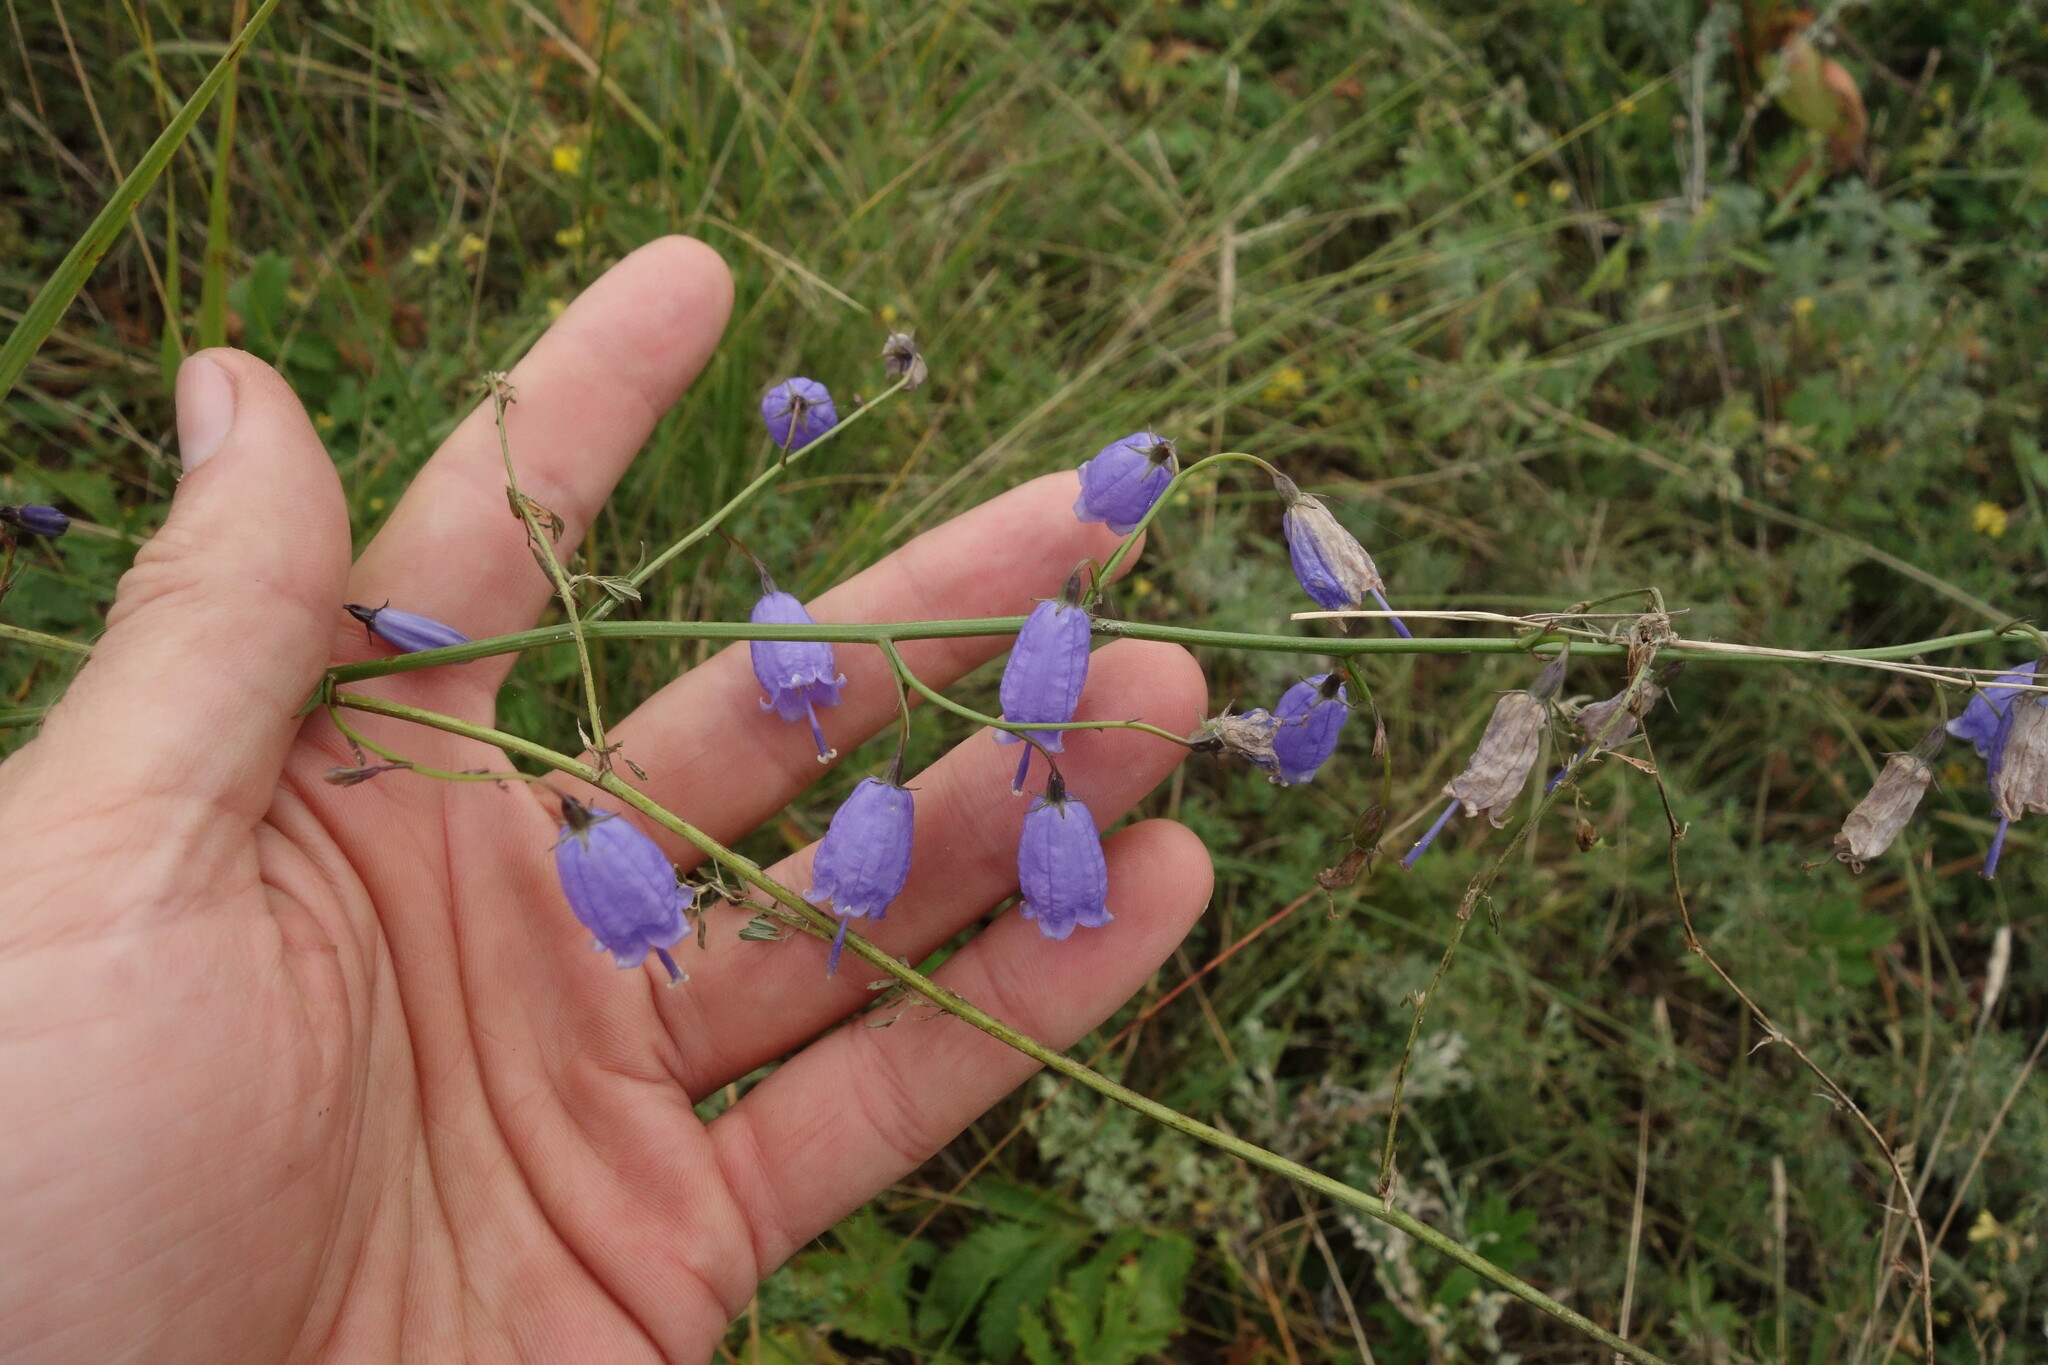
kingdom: Plantae
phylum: Tracheophyta
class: Magnoliopsida
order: Asterales
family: Campanulaceae
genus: Adenophora
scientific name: Adenophora stenanthina
